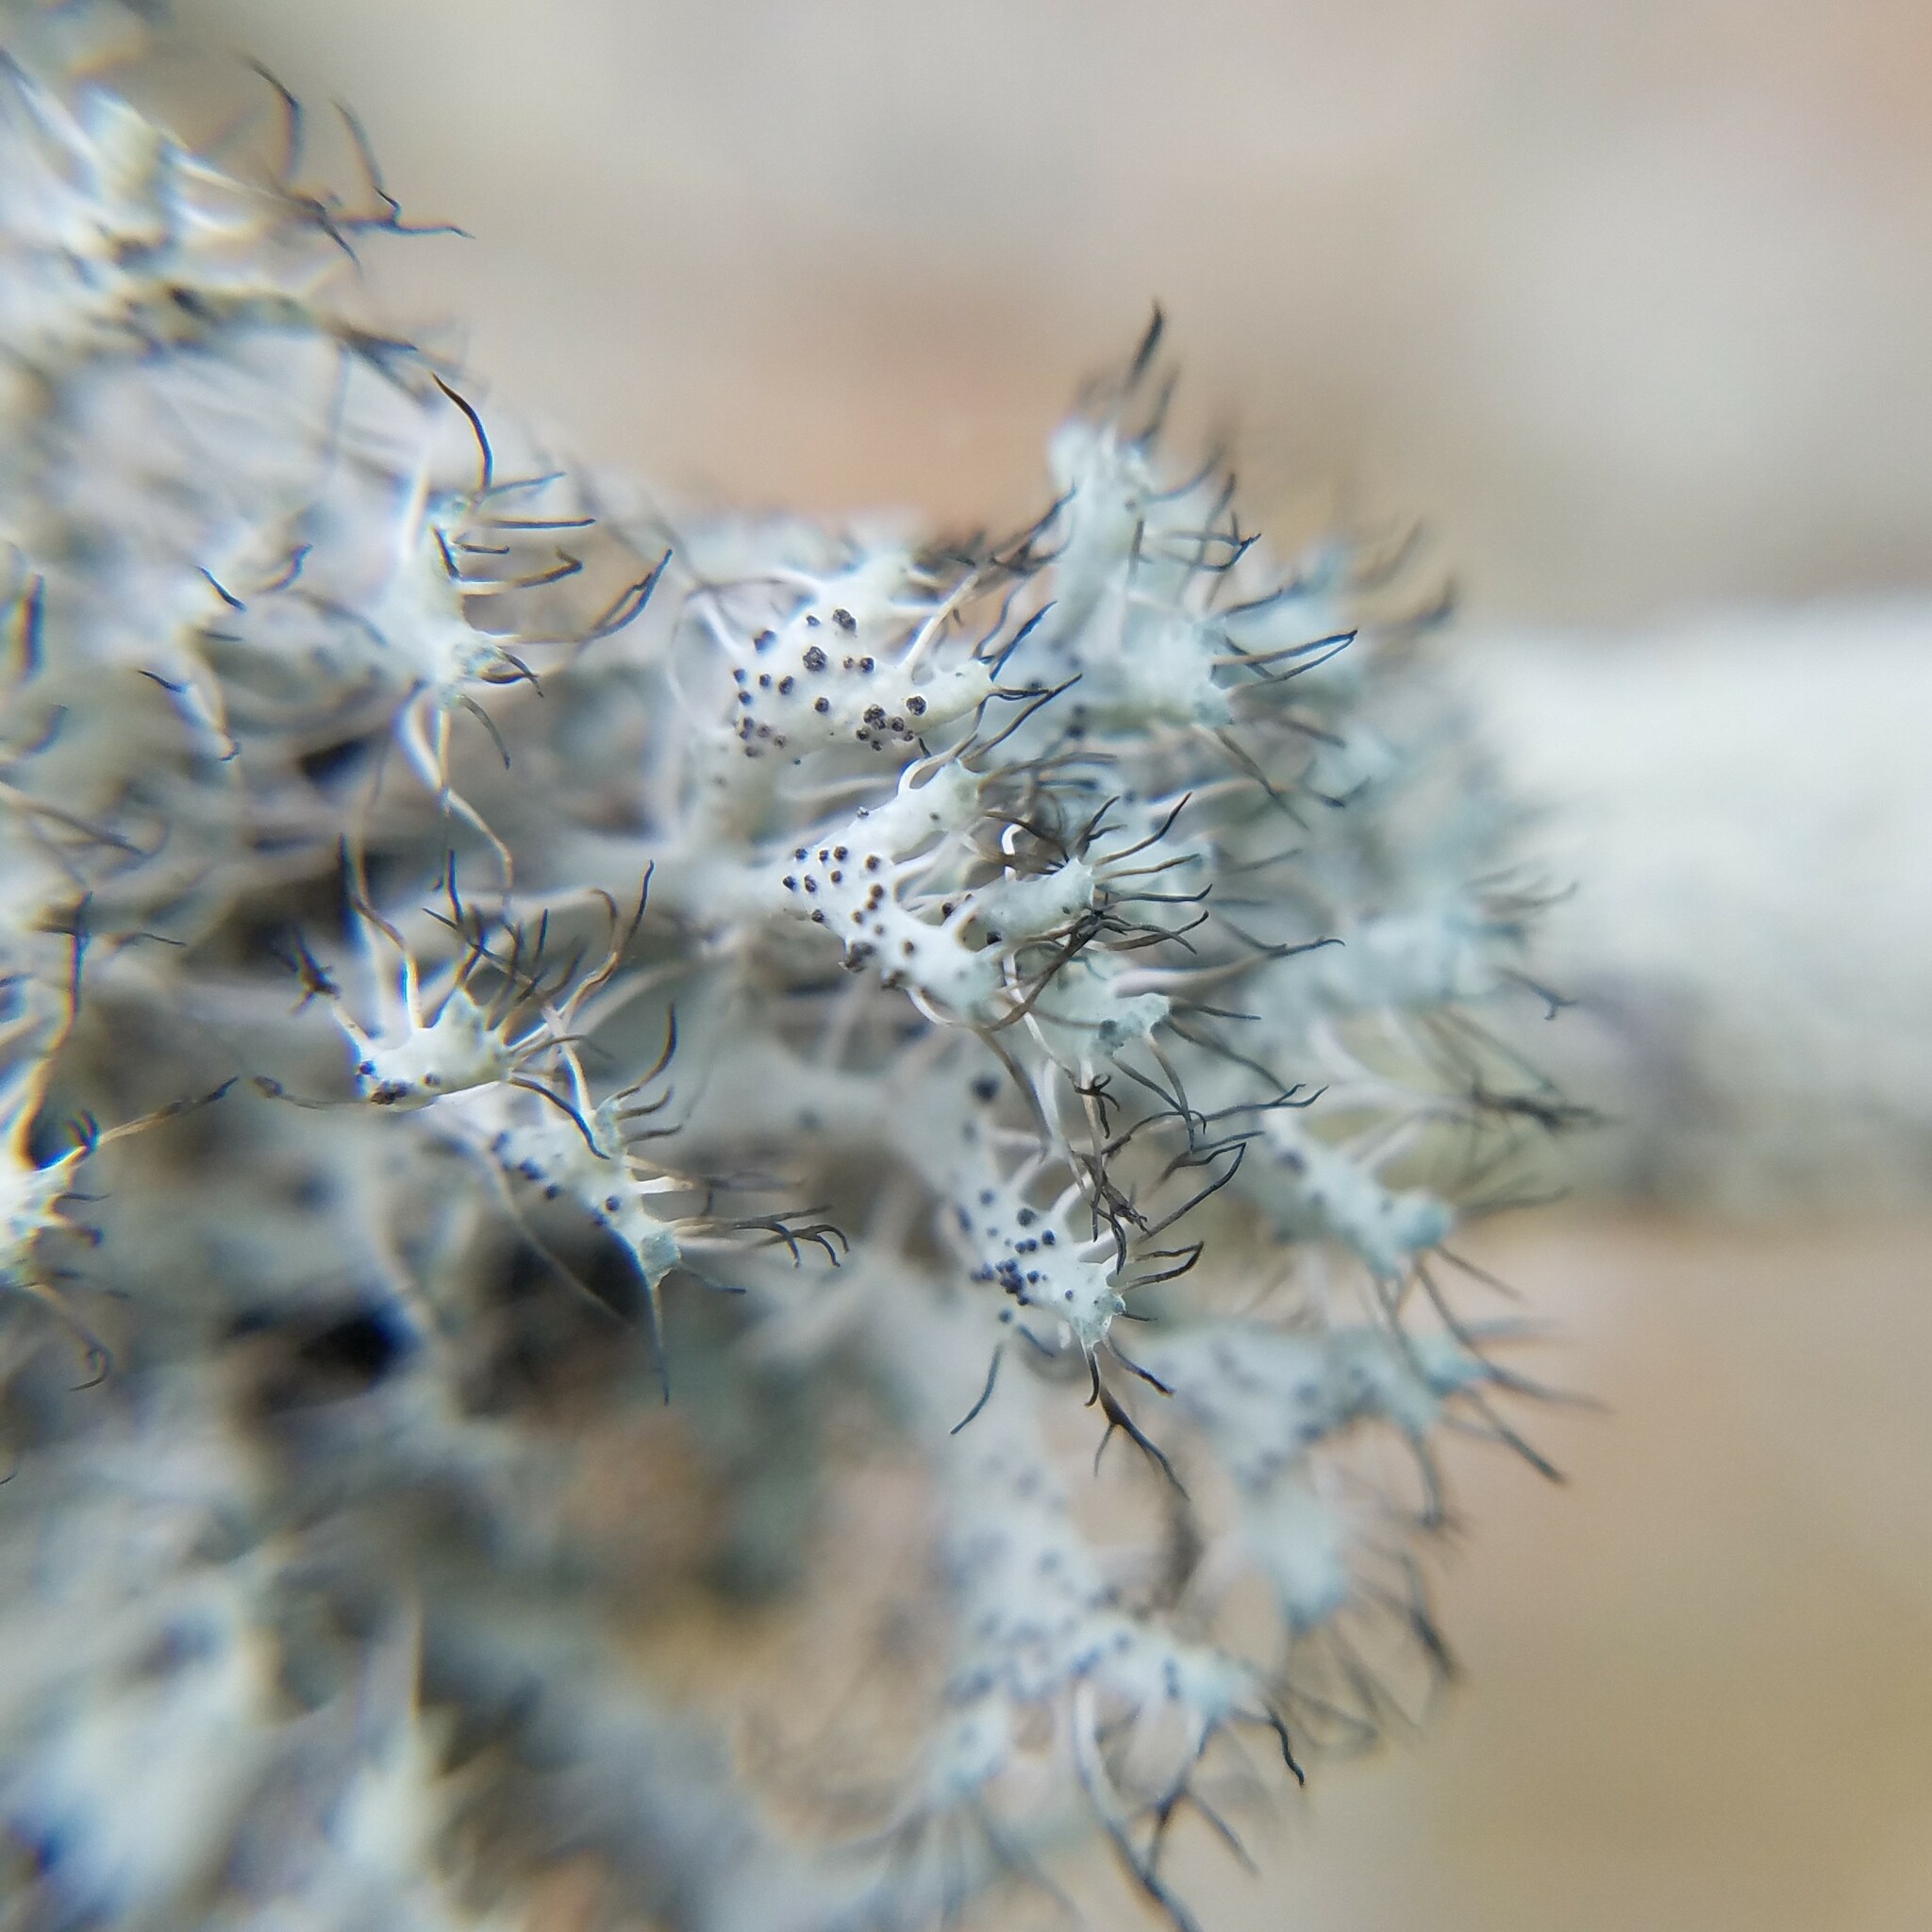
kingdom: Fungi
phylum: Ascomycota
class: Lecanoromycetes
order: Caliciales
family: Physciaceae
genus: Heterodermia
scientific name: Heterodermia echinata
